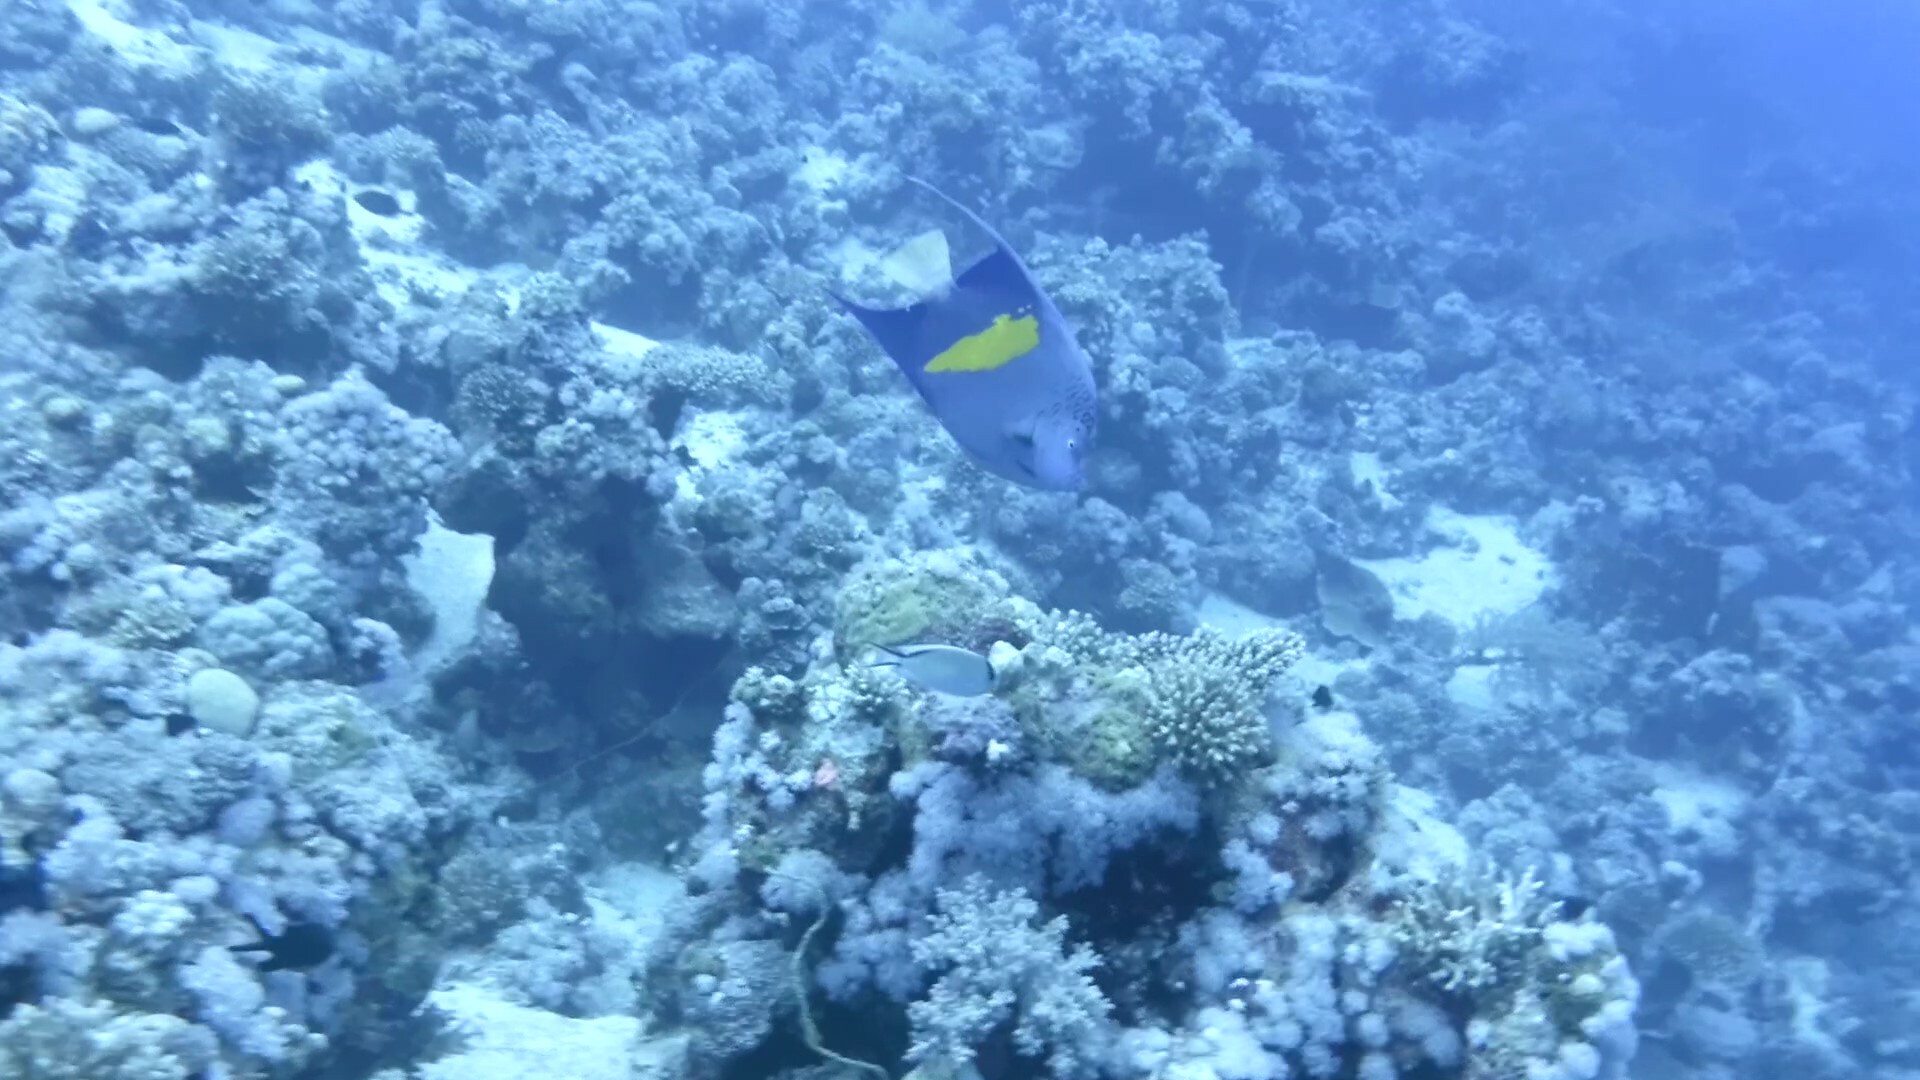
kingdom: Animalia
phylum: Chordata
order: Perciformes
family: Pomacanthidae
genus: Pomacanthus
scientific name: Pomacanthus maculosus
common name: Yellowbar angelfish
